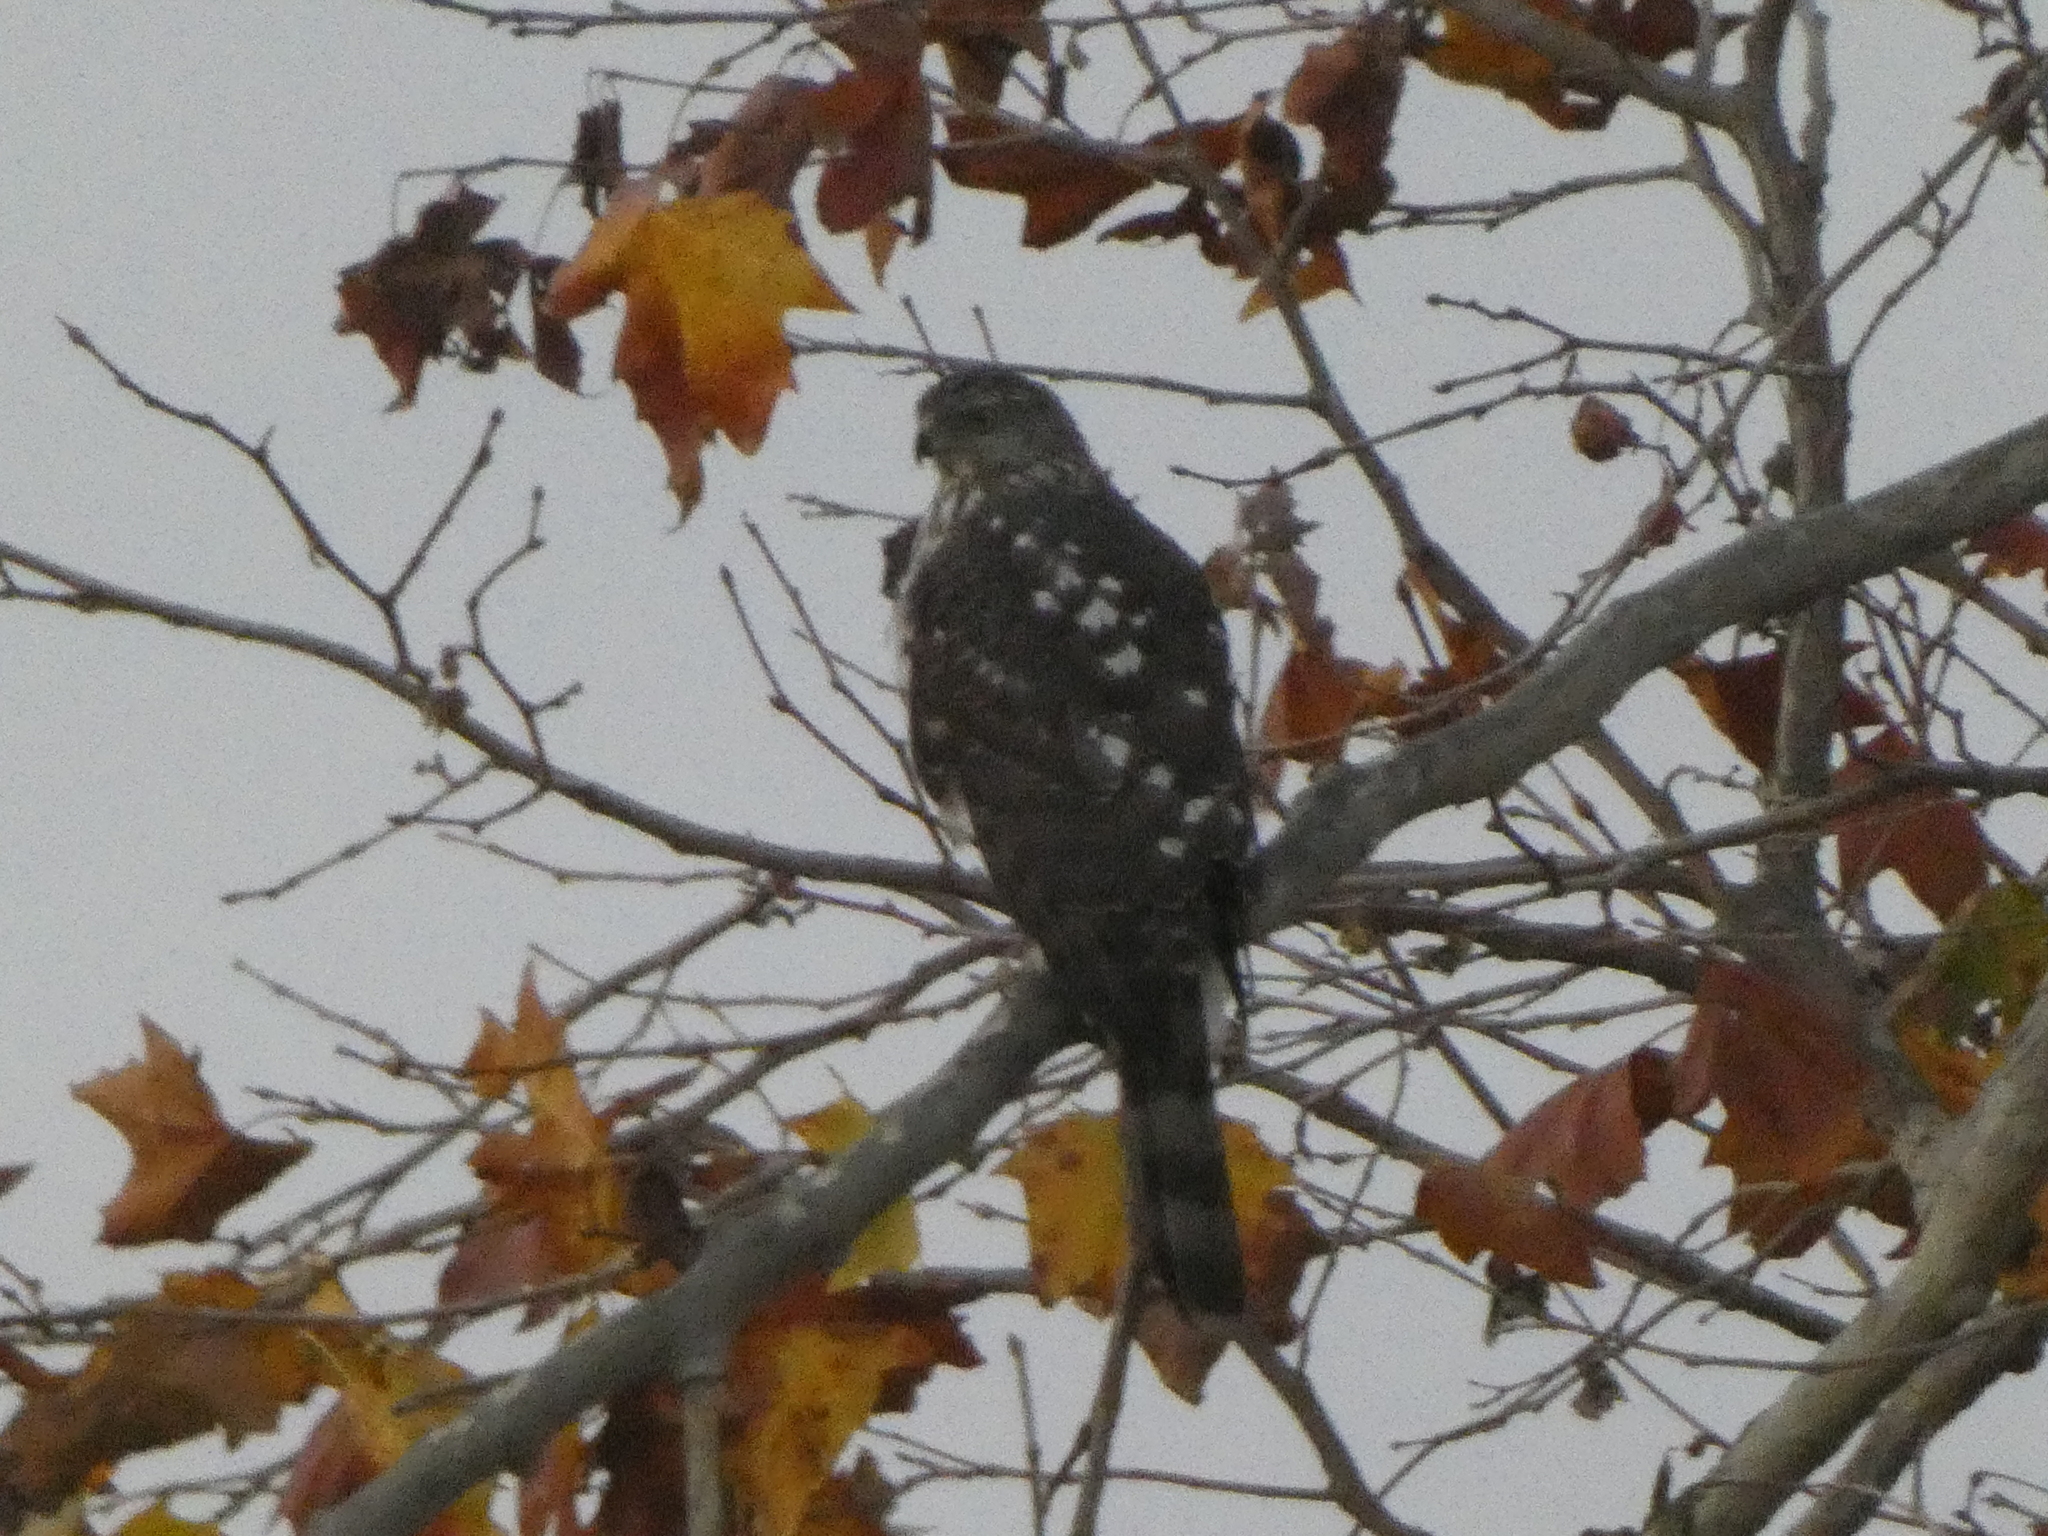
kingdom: Animalia
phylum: Chordata
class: Aves
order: Accipitriformes
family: Accipitridae
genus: Accipiter
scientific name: Accipiter cooperii
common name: Cooper's hawk
